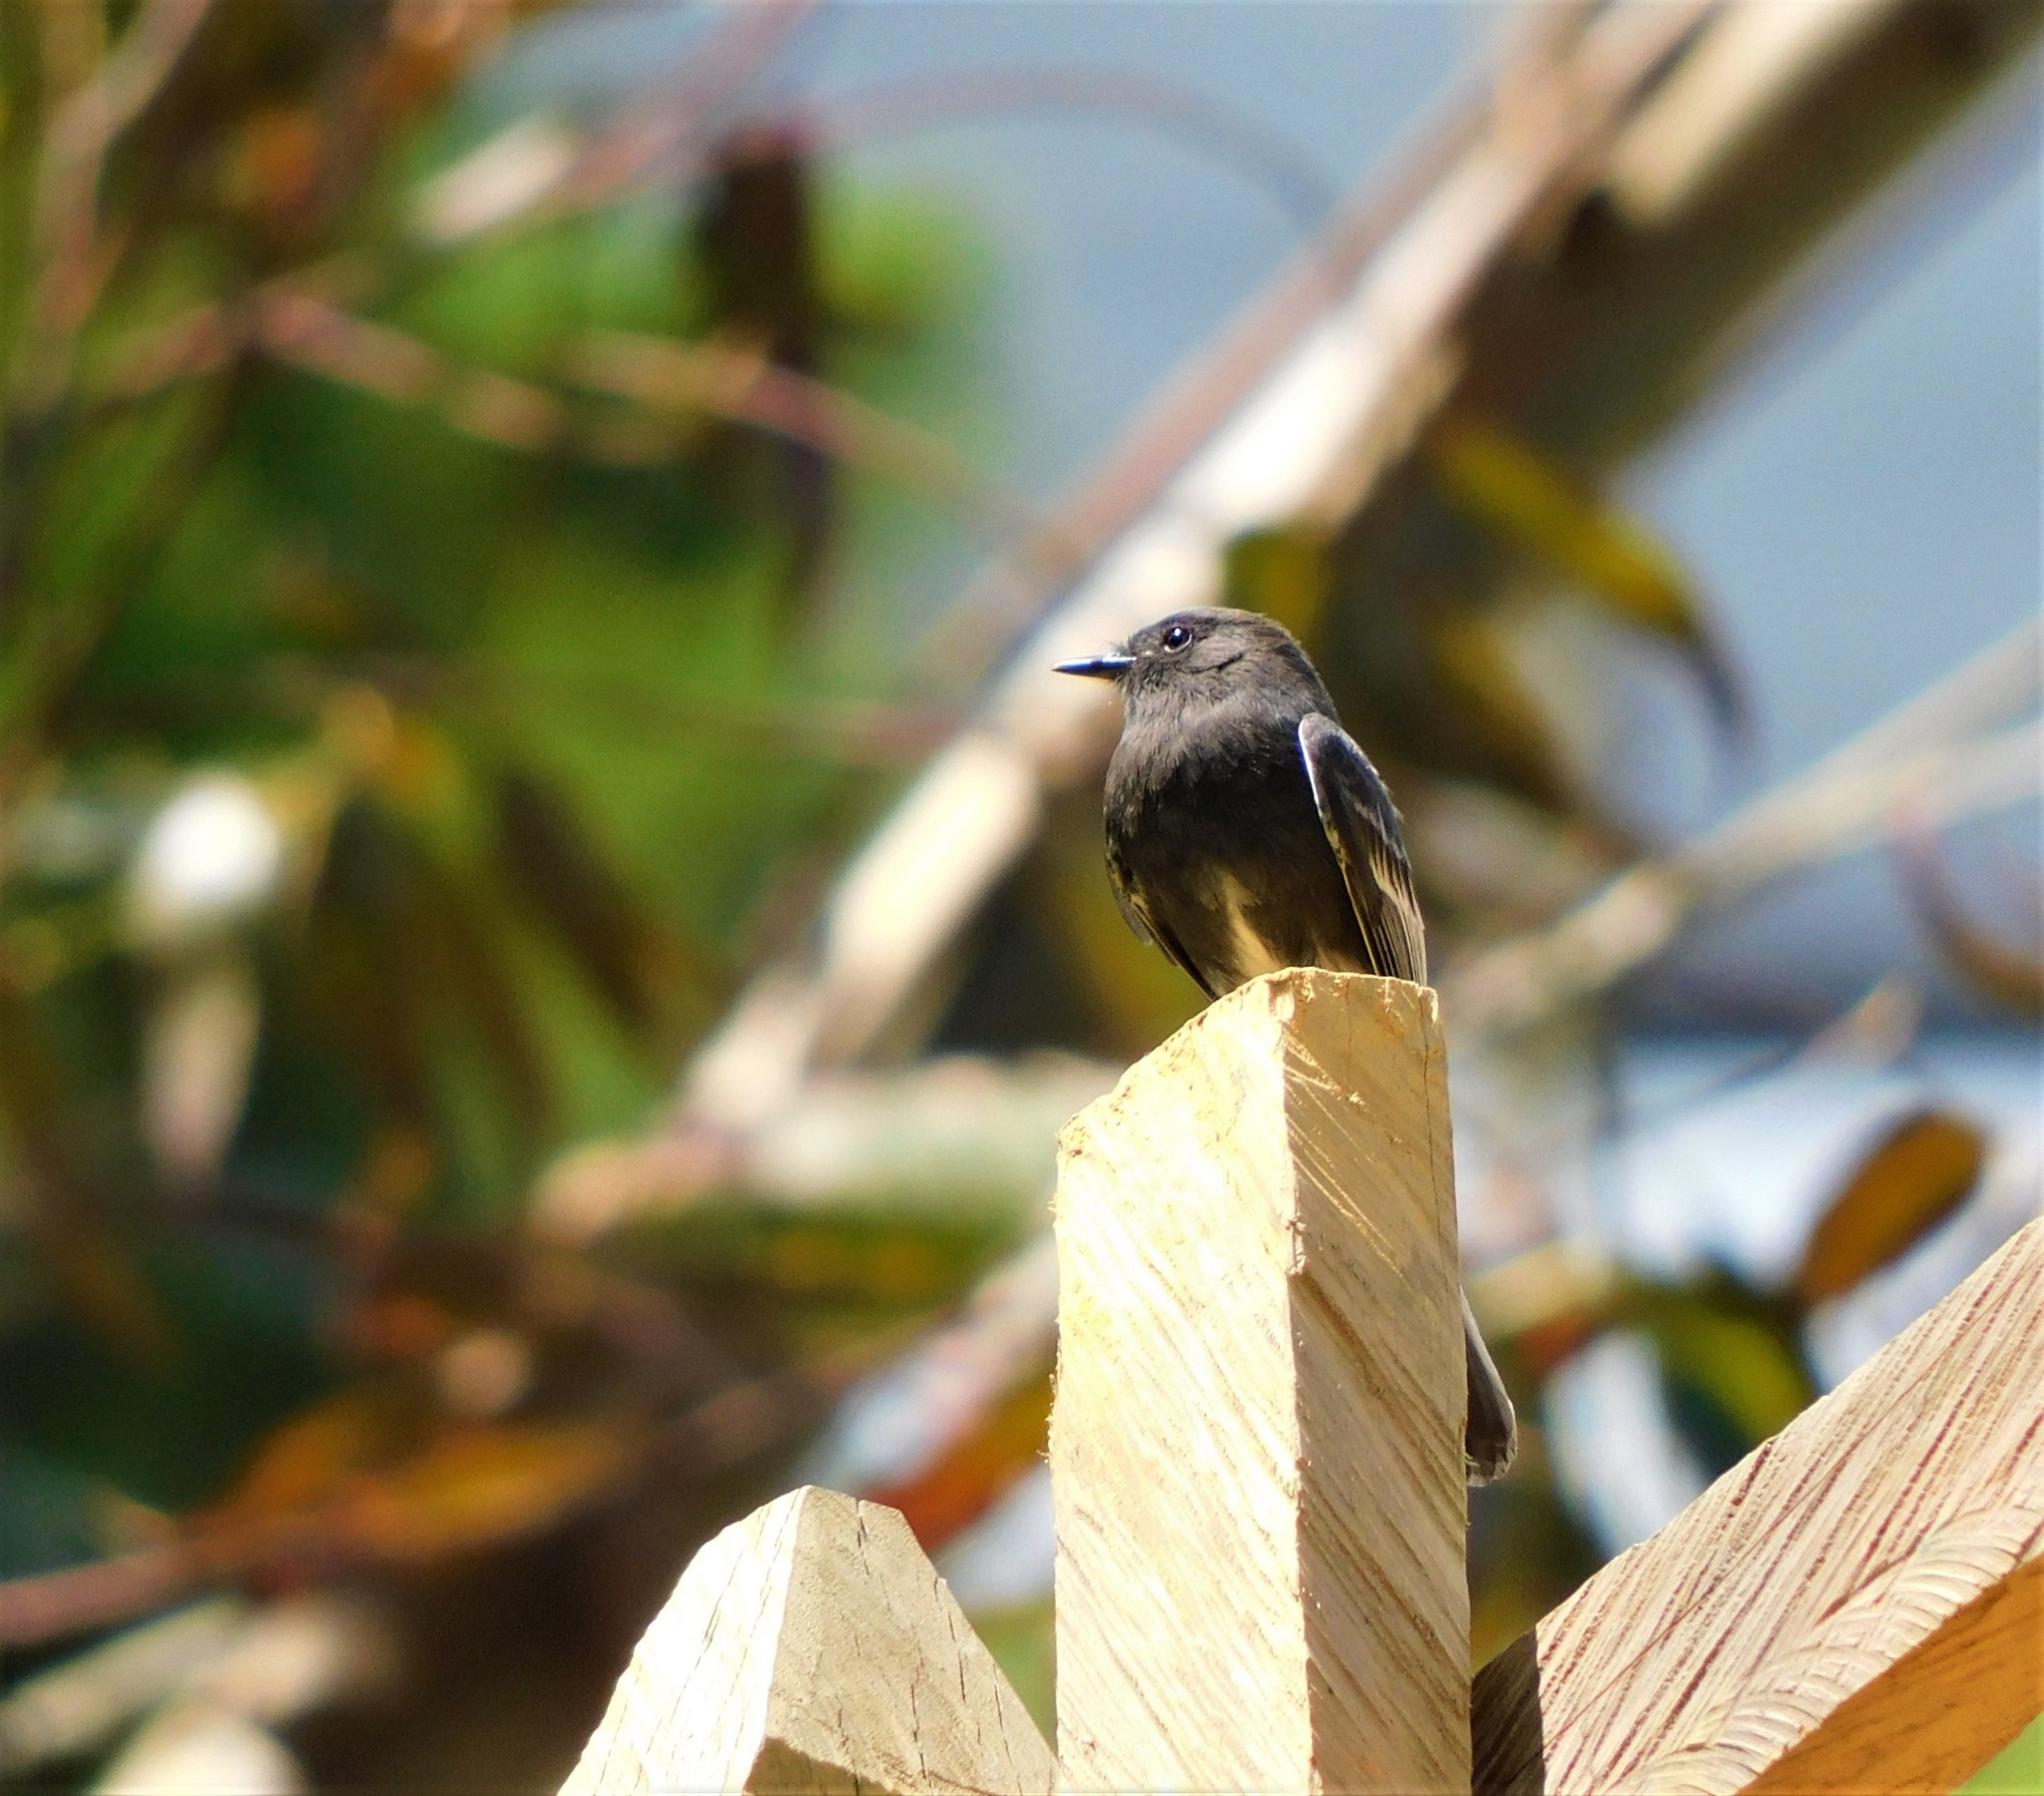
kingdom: Animalia
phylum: Chordata
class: Aves
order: Passeriformes
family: Tyrannidae
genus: Sayornis
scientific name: Sayornis nigricans
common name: Black phoebe
